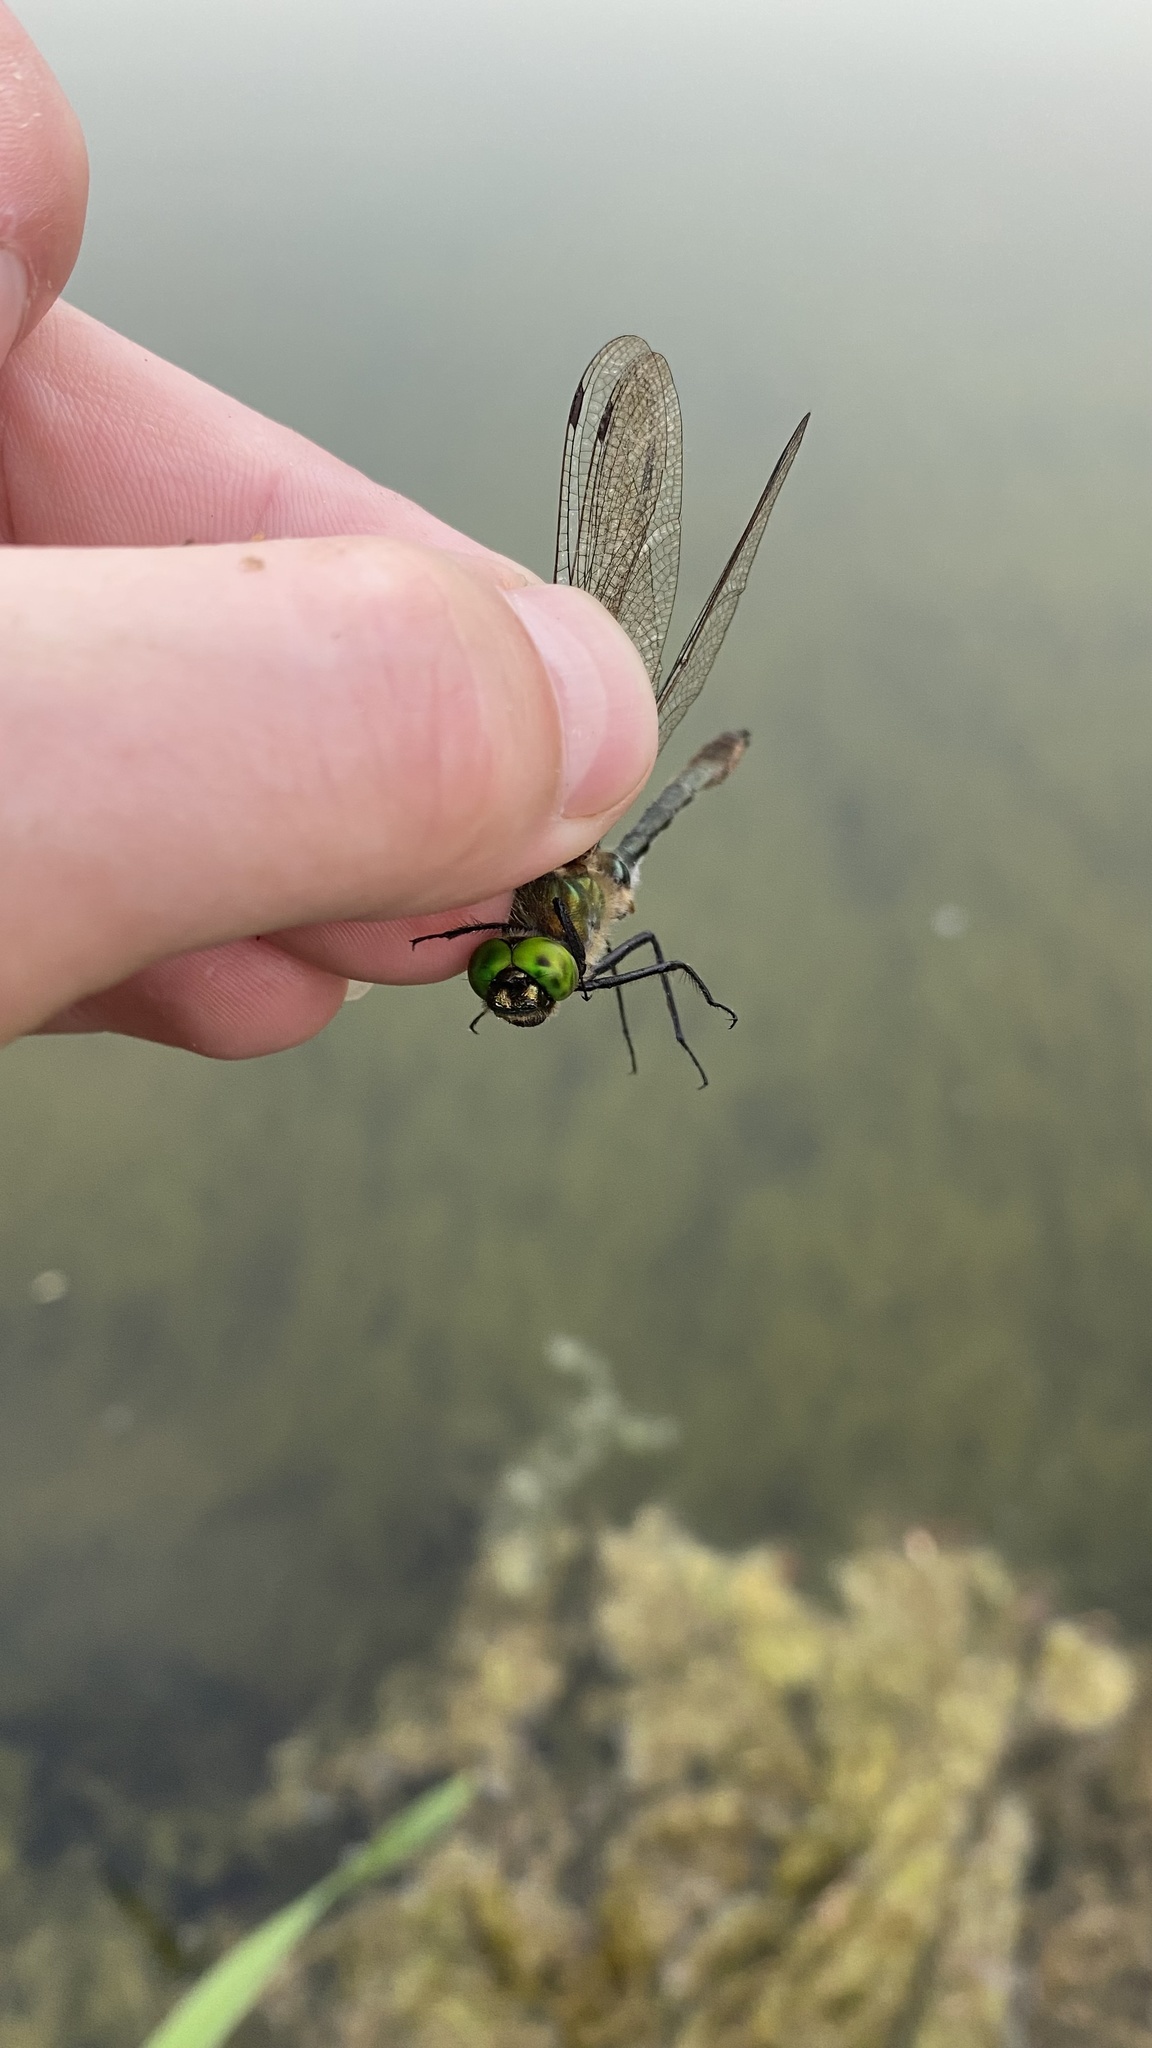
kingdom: Animalia
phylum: Arthropoda
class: Insecta
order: Odonata
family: Corduliidae
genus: Cordulia
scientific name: Cordulia aenea
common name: Downy emerald
